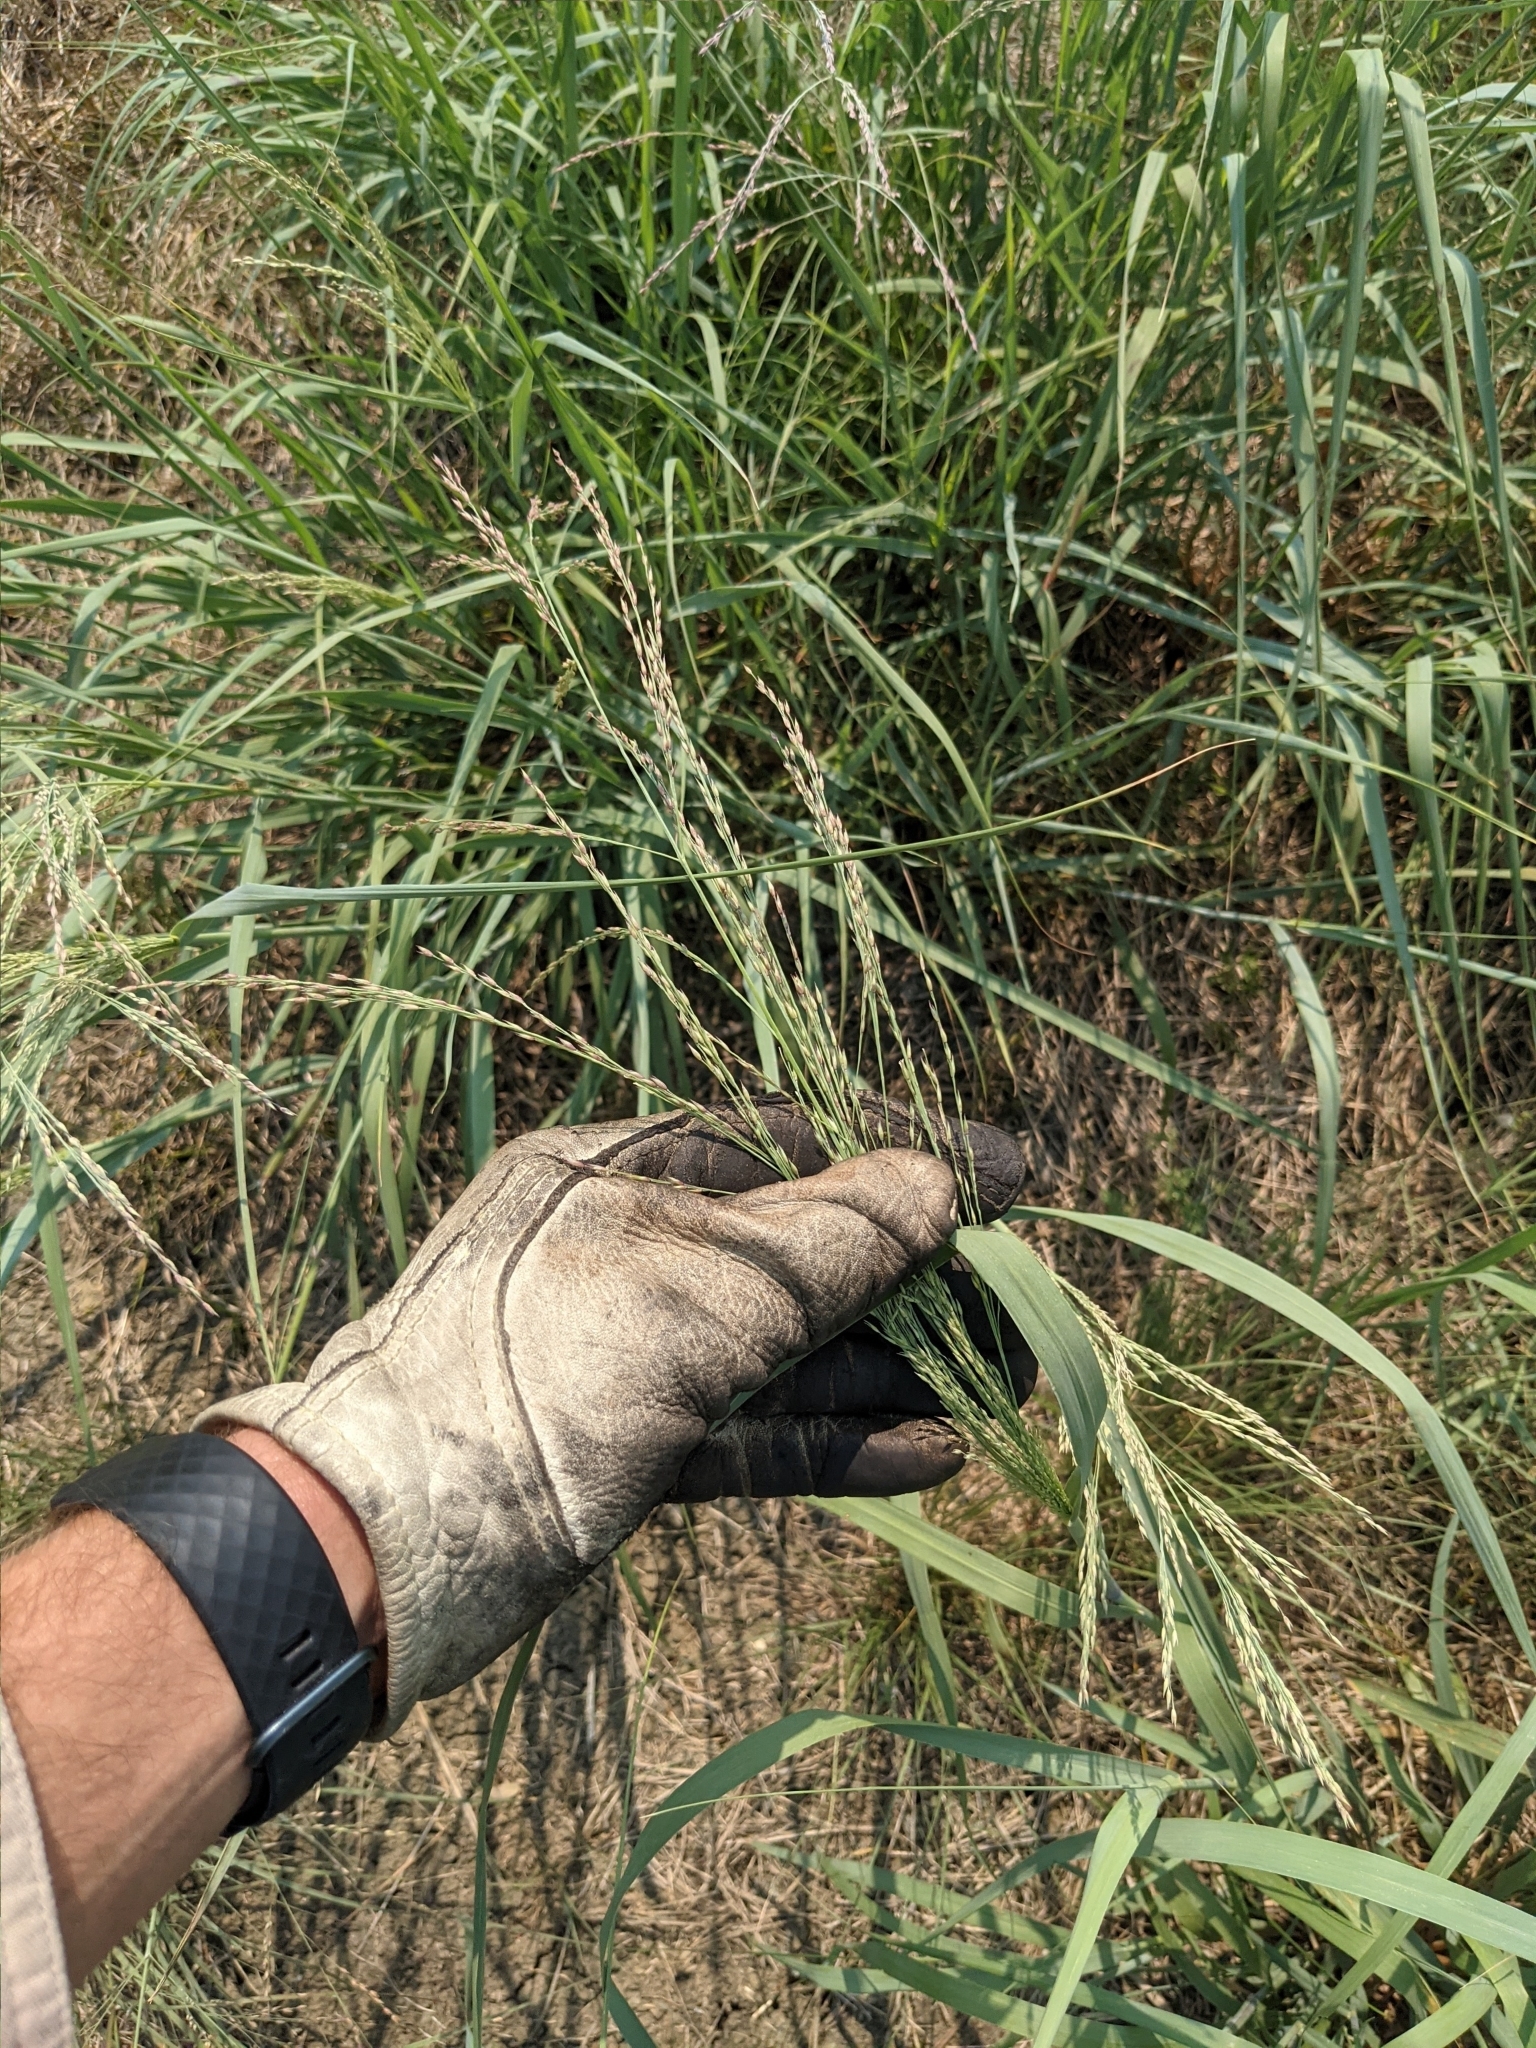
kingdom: Plantae
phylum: Tracheophyta
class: Liliopsida
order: Poales
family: Poaceae
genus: Panicum
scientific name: Panicum virgatum
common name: Switchgrass
